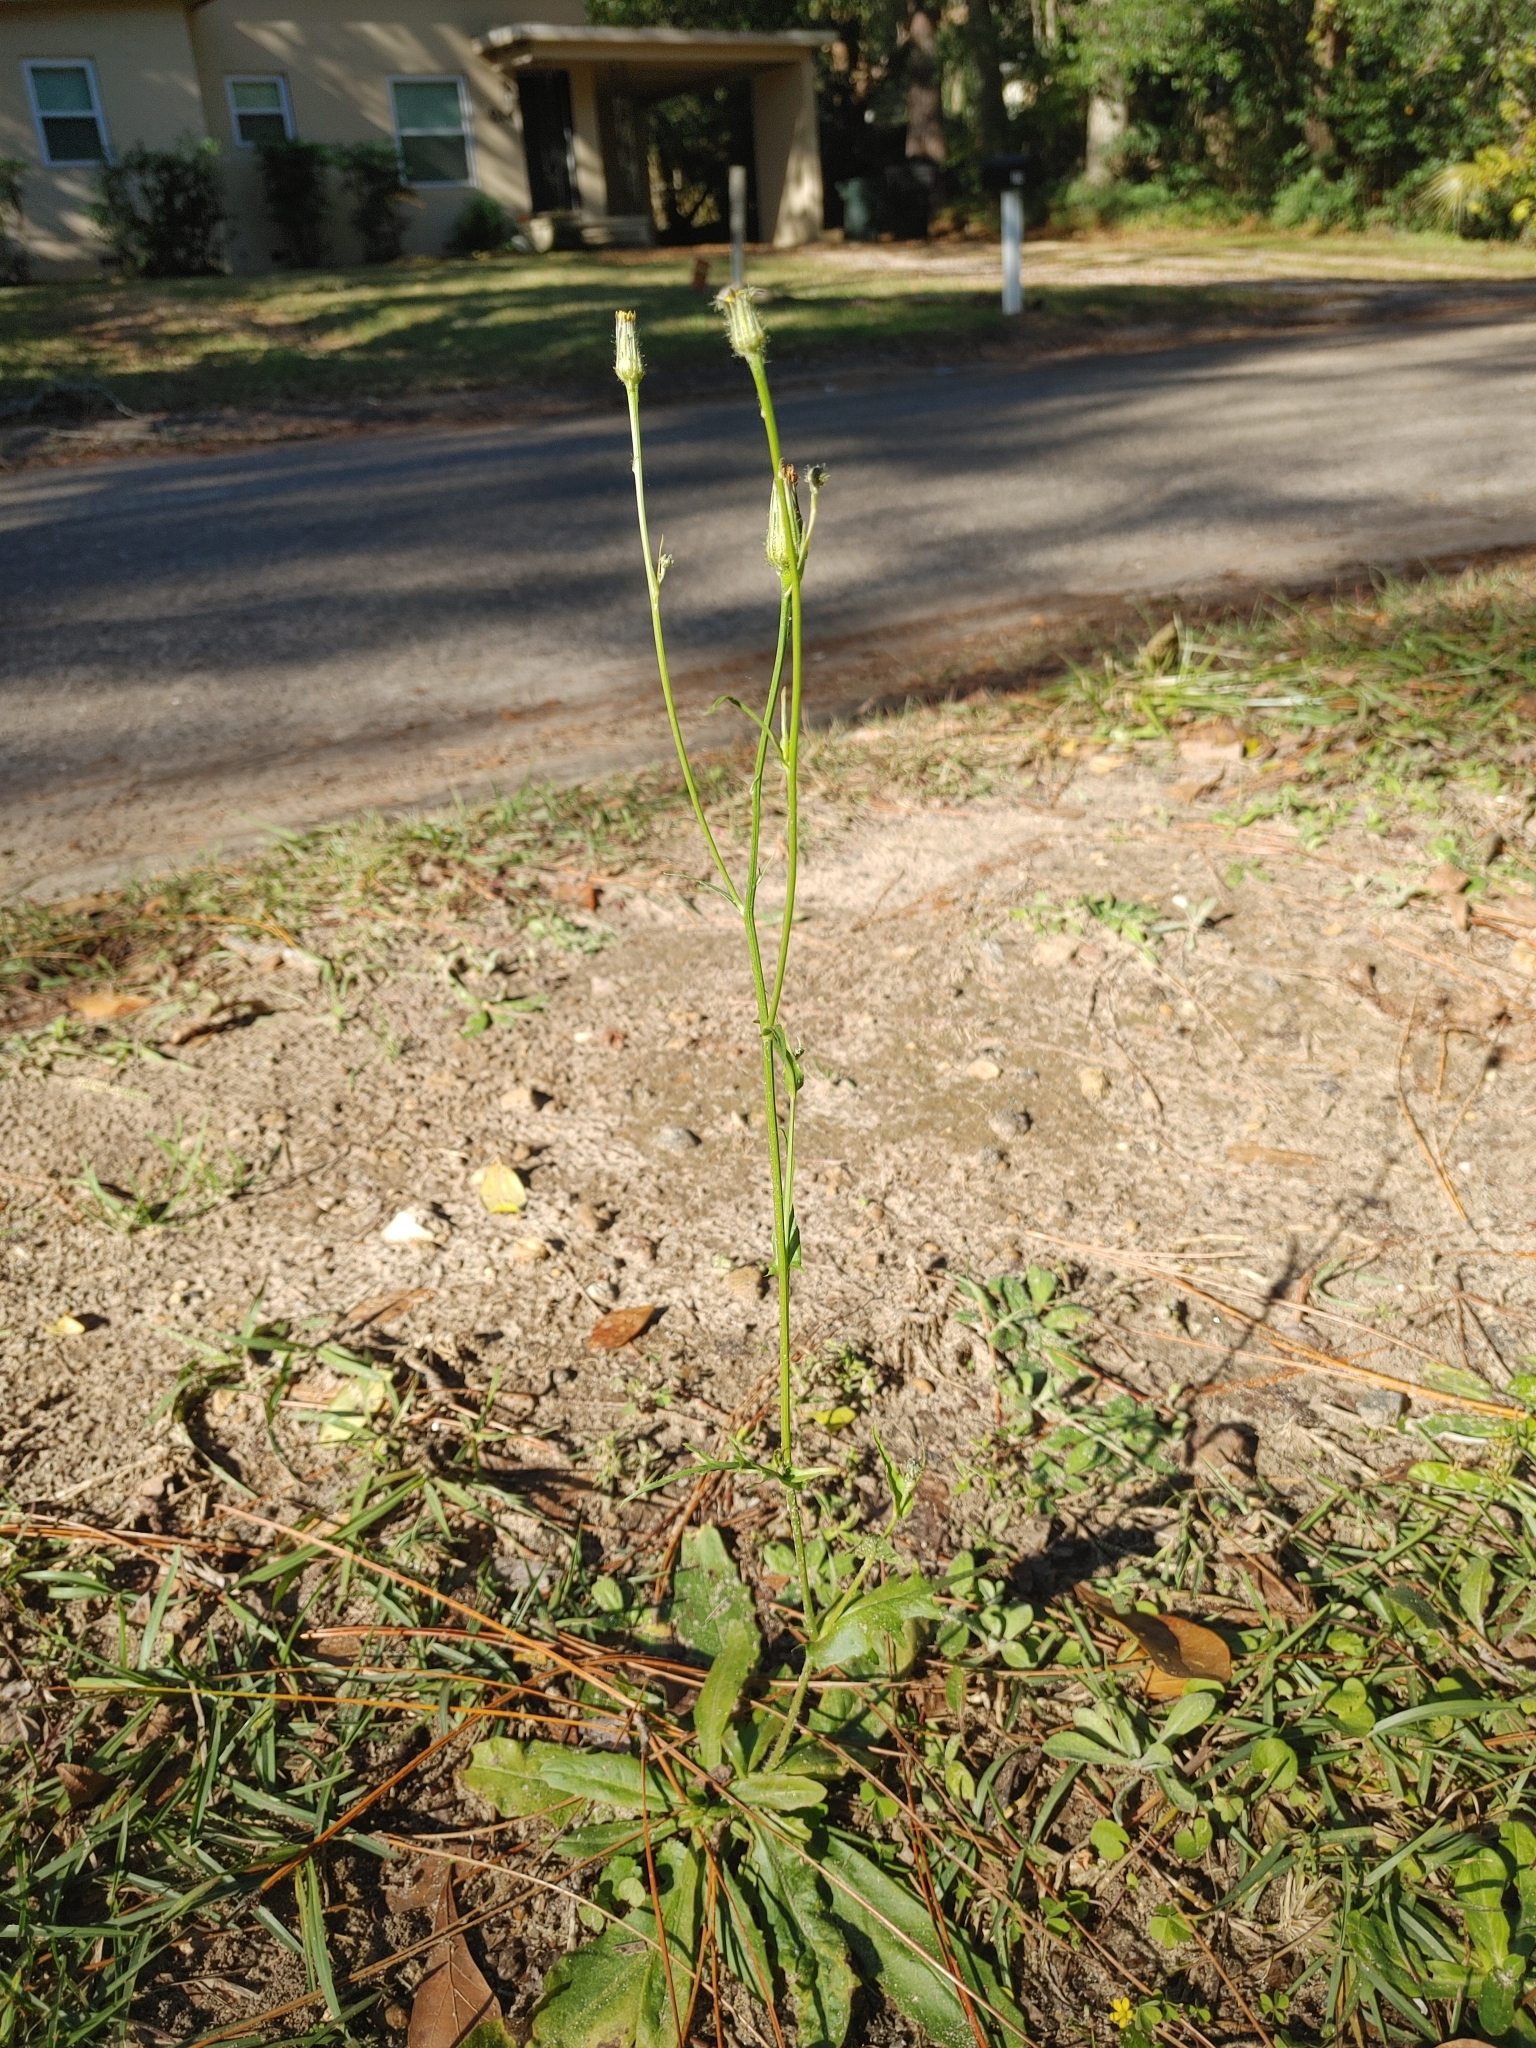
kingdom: Plantae
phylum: Tracheophyta
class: Magnoliopsida
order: Asterales
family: Asteraceae
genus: Hypochaeris
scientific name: Hypochaeris chillensis
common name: Brazilian cat's ear
